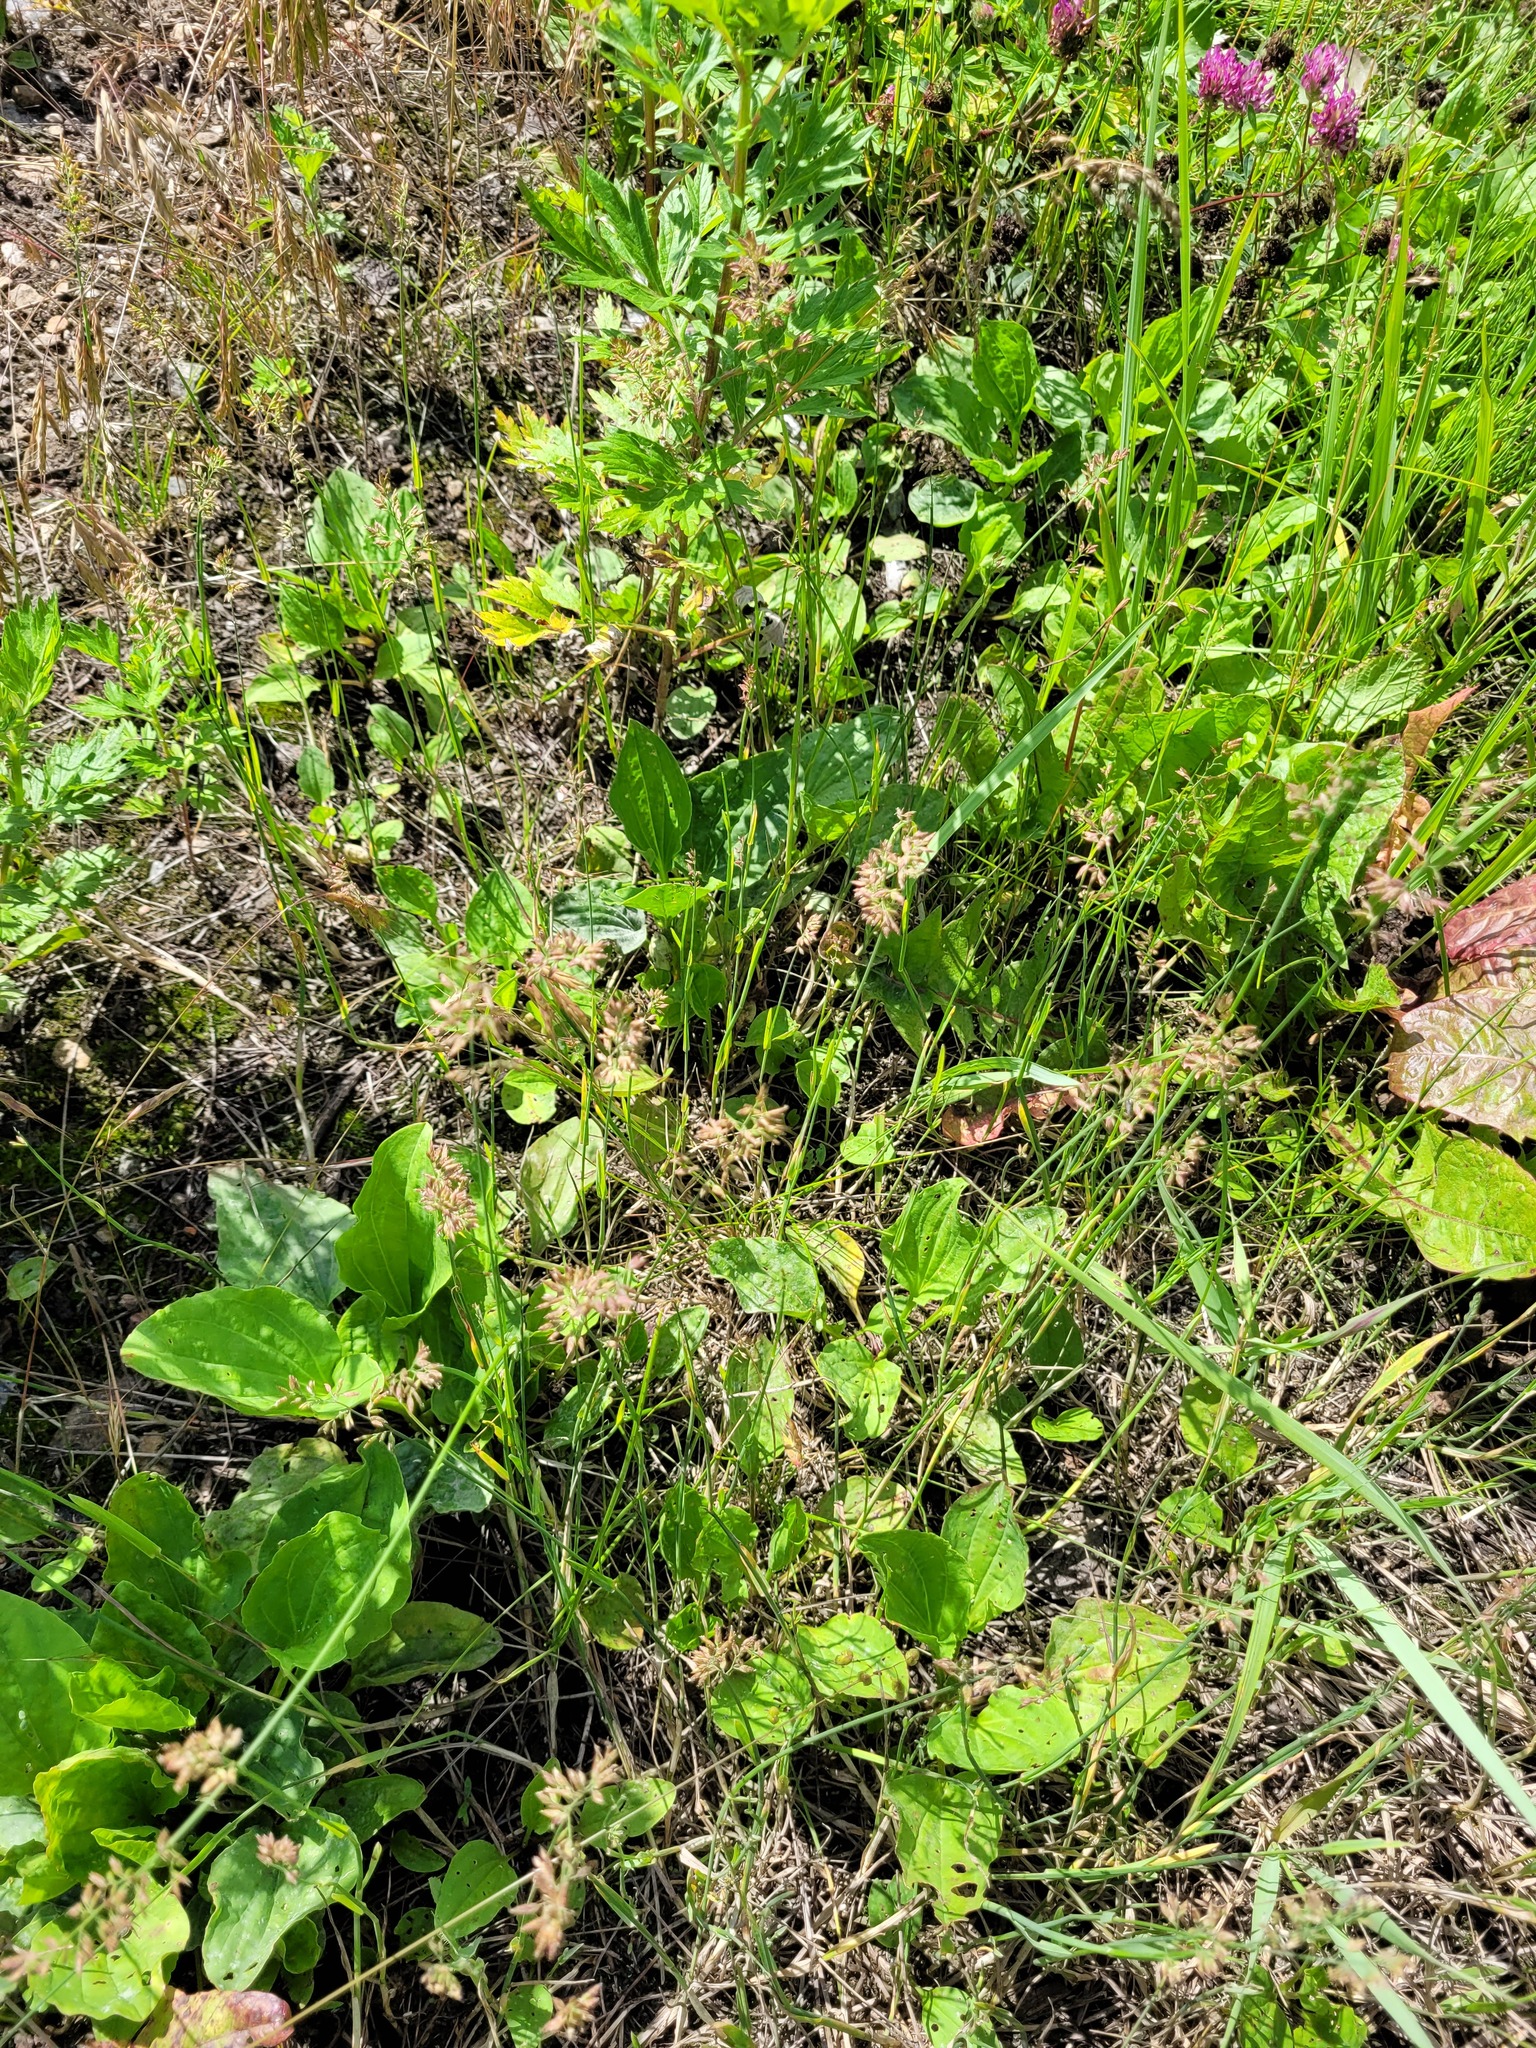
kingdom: Plantae
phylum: Tracheophyta
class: Liliopsida
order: Poales
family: Poaceae
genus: Poa
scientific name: Poa compressa
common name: Canada bluegrass
